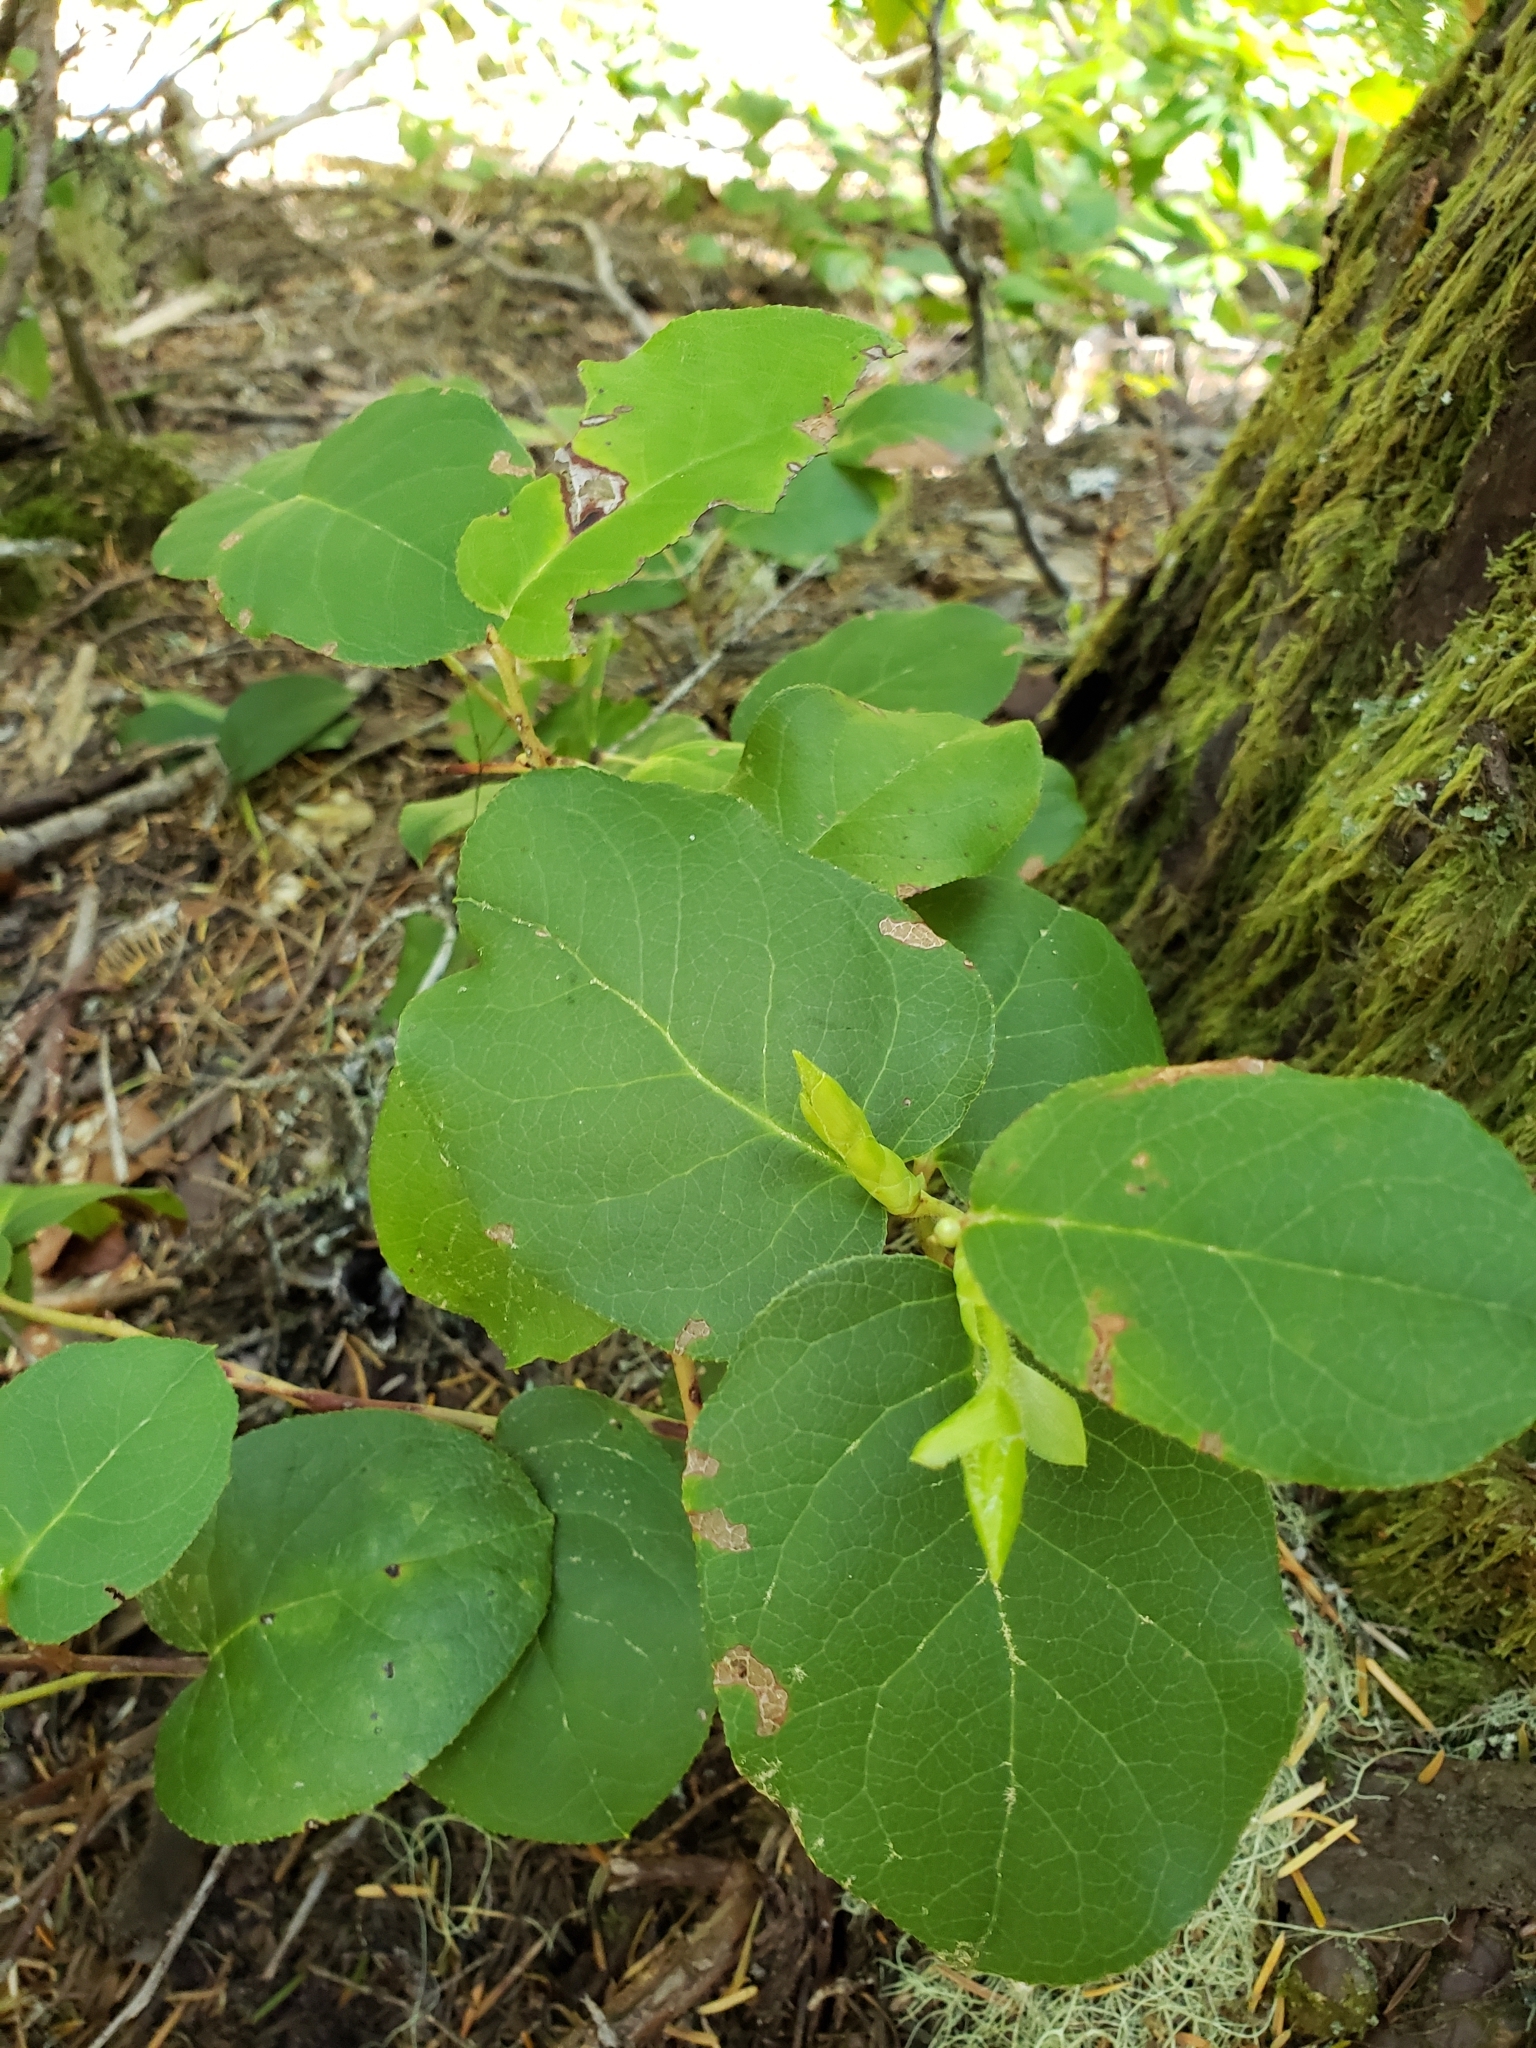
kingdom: Plantae
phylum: Tracheophyta
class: Magnoliopsida
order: Ericales
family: Ericaceae
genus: Gaultheria
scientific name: Gaultheria shallon
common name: Shallon
